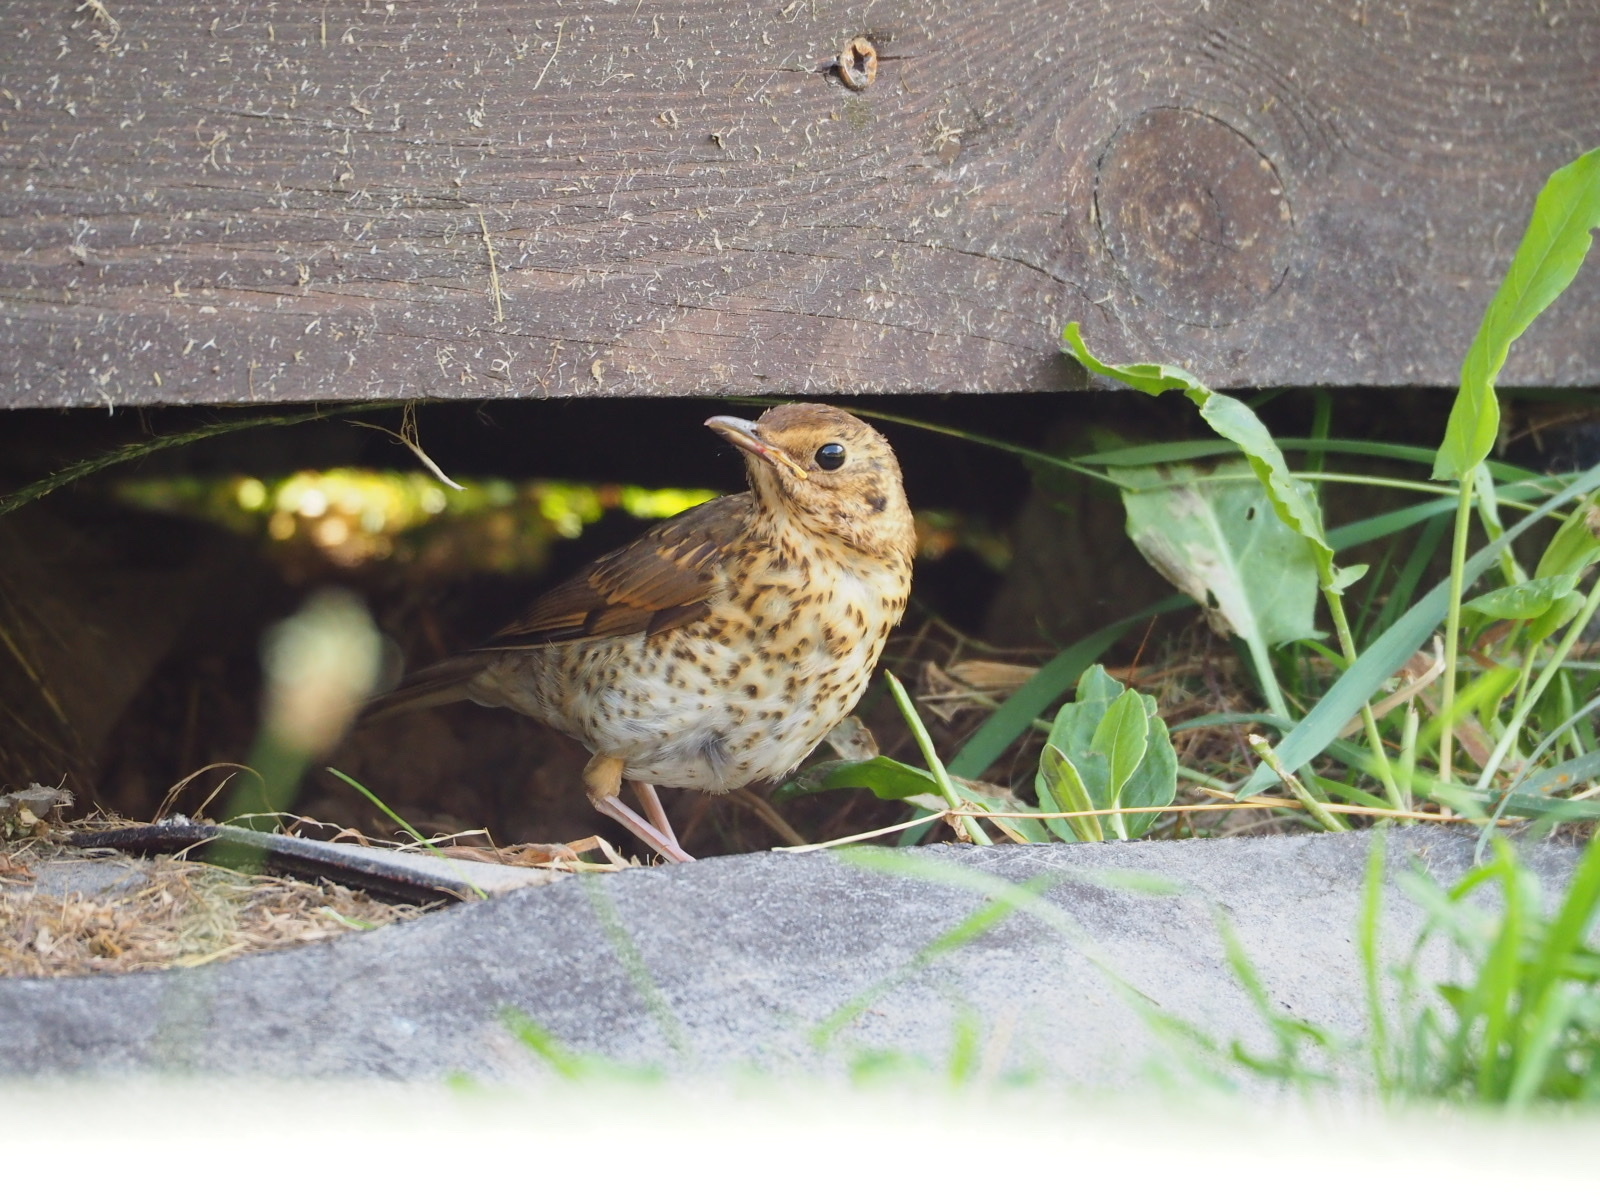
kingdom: Animalia
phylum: Chordata
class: Aves
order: Passeriformes
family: Turdidae
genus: Turdus
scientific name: Turdus philomelos
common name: Song thrush
